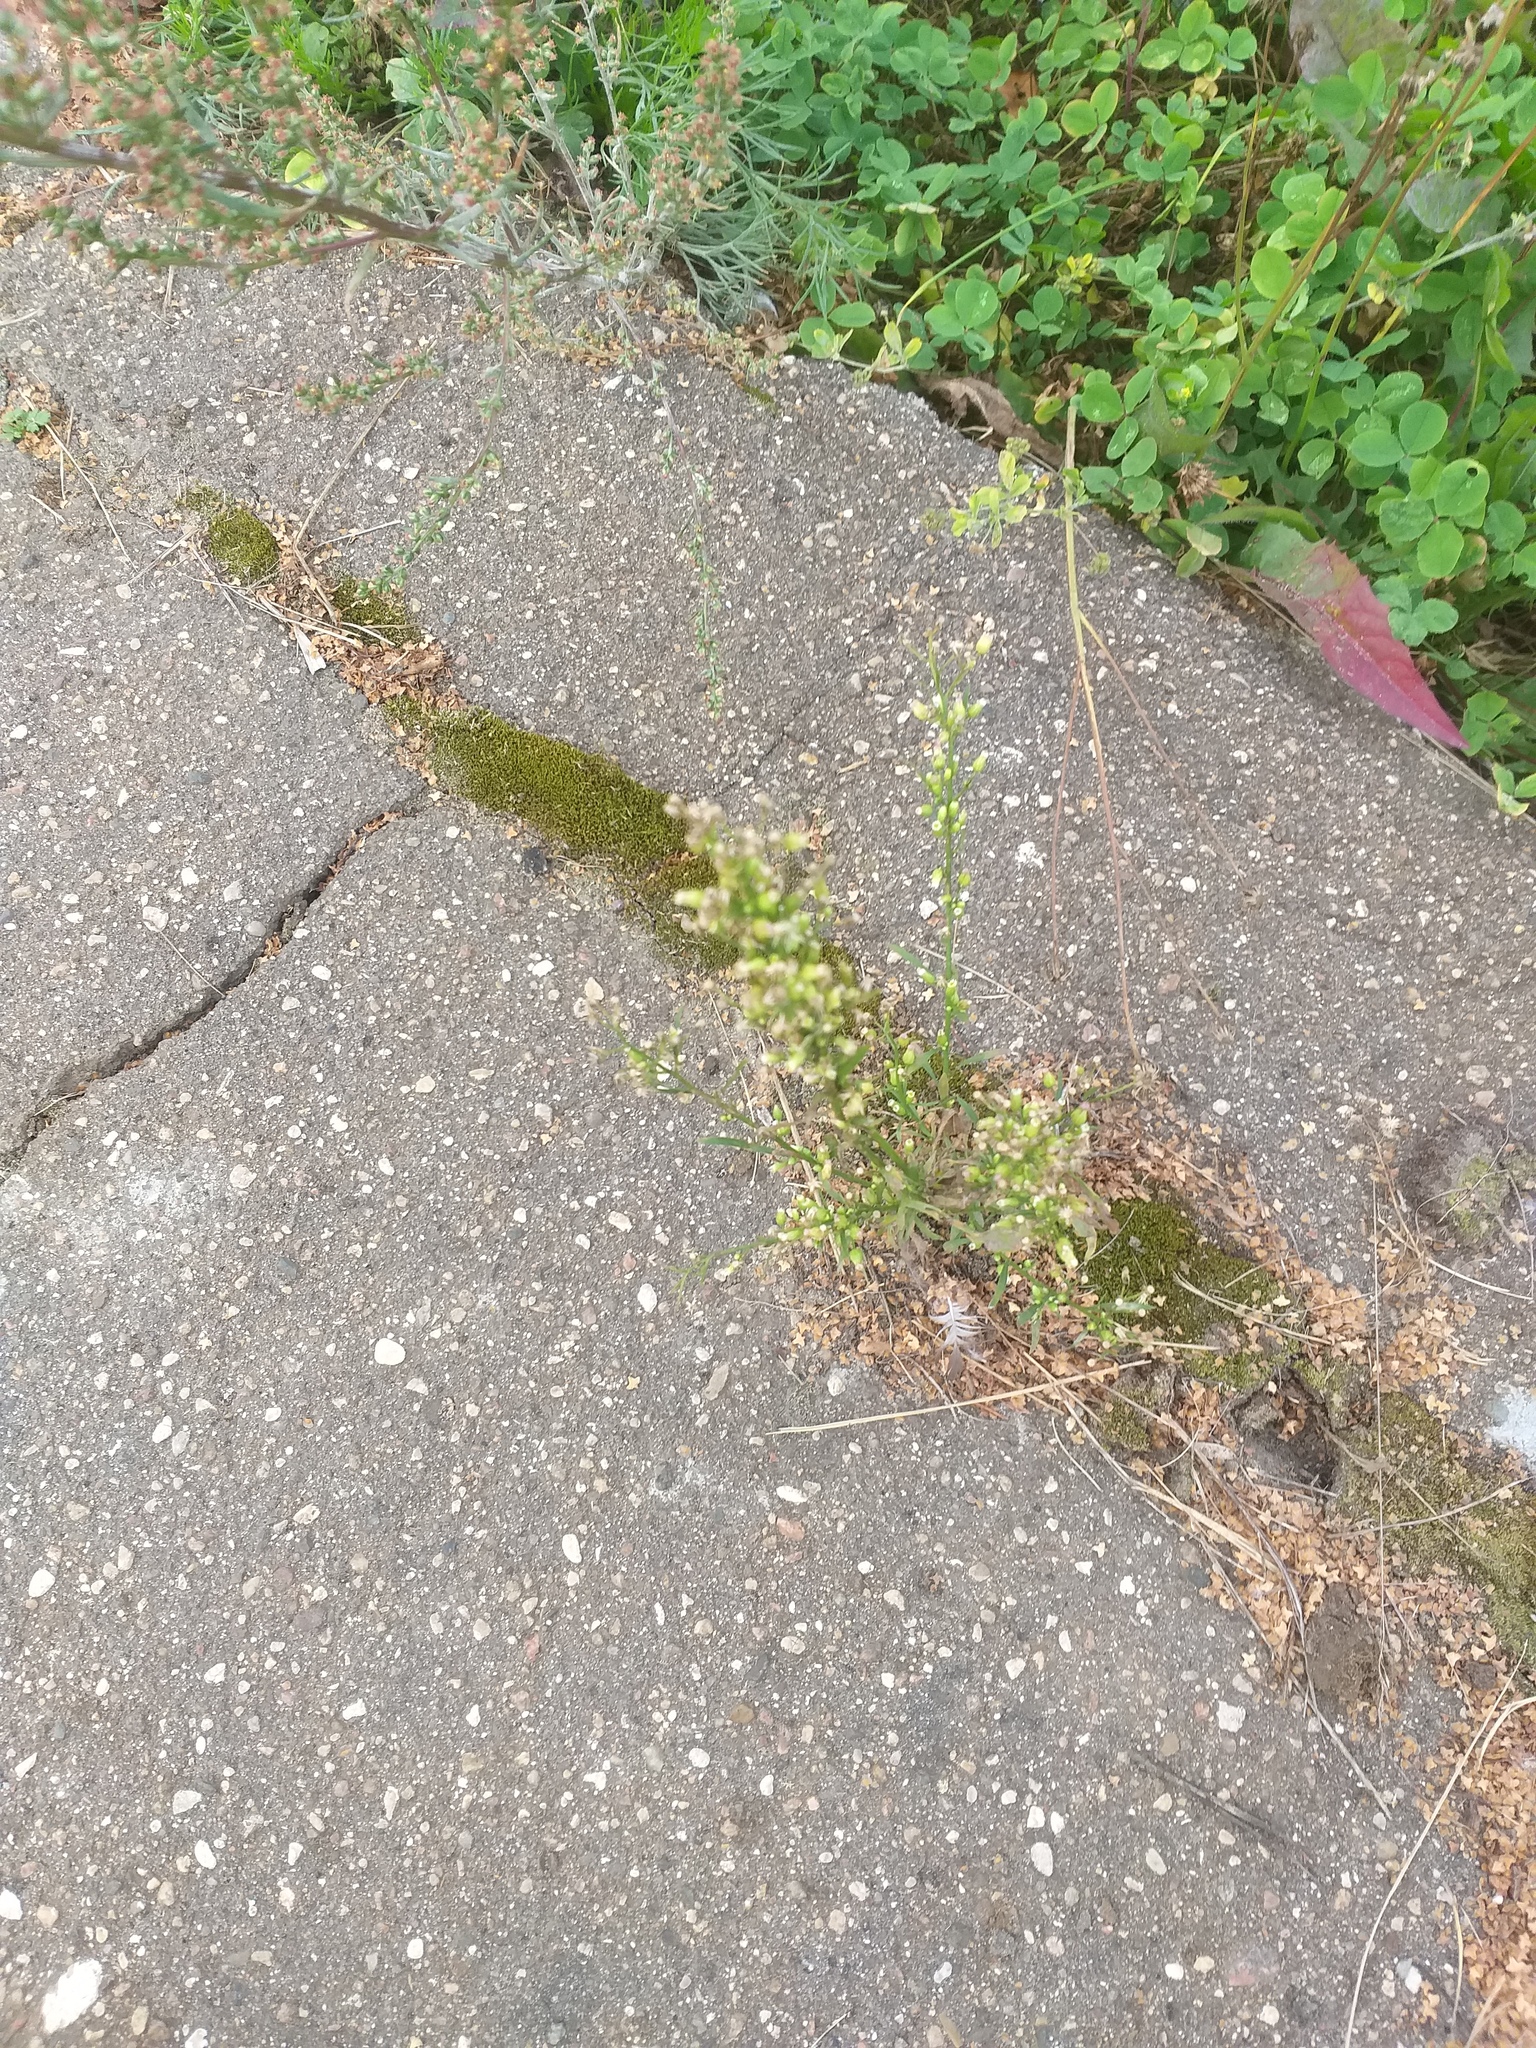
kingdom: Plantae
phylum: Tracheophyta
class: Magnoliopsida
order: Asterales
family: Asteraceae
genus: Erigeron
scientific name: Erigeron canadensis
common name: Canadian fleabane
